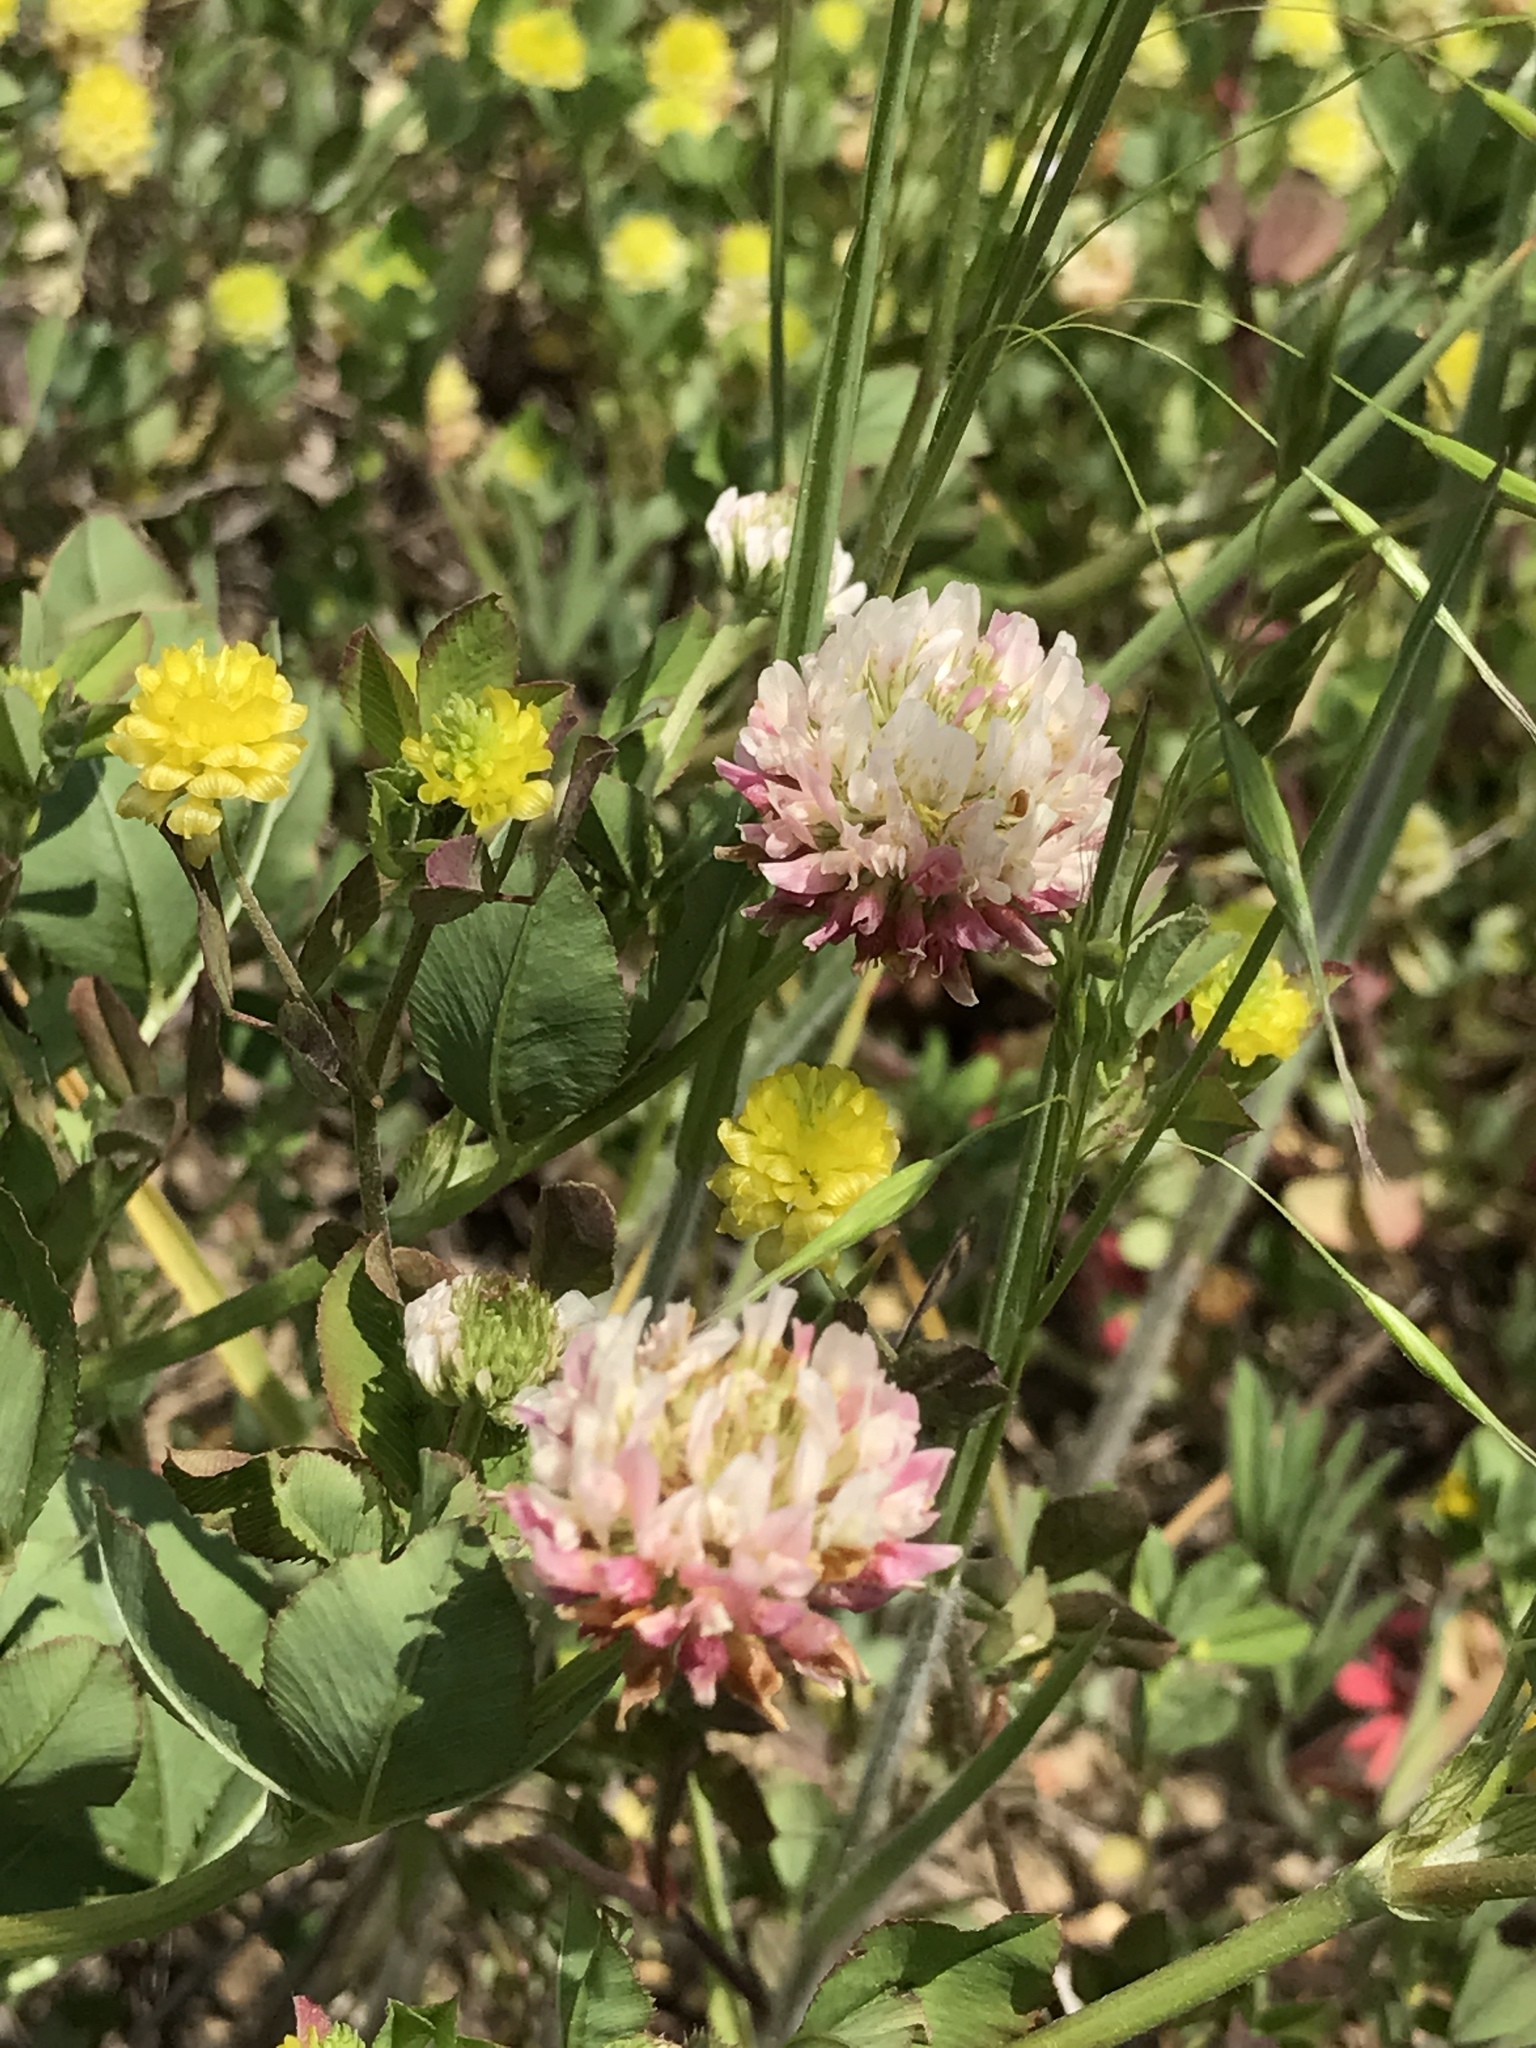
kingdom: Plantae
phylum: Tracheophyta
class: Magnoliopsida
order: Fabales
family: Fabaceae
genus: Trifolium
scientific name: Trifolium hybridum
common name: Alsike clover
